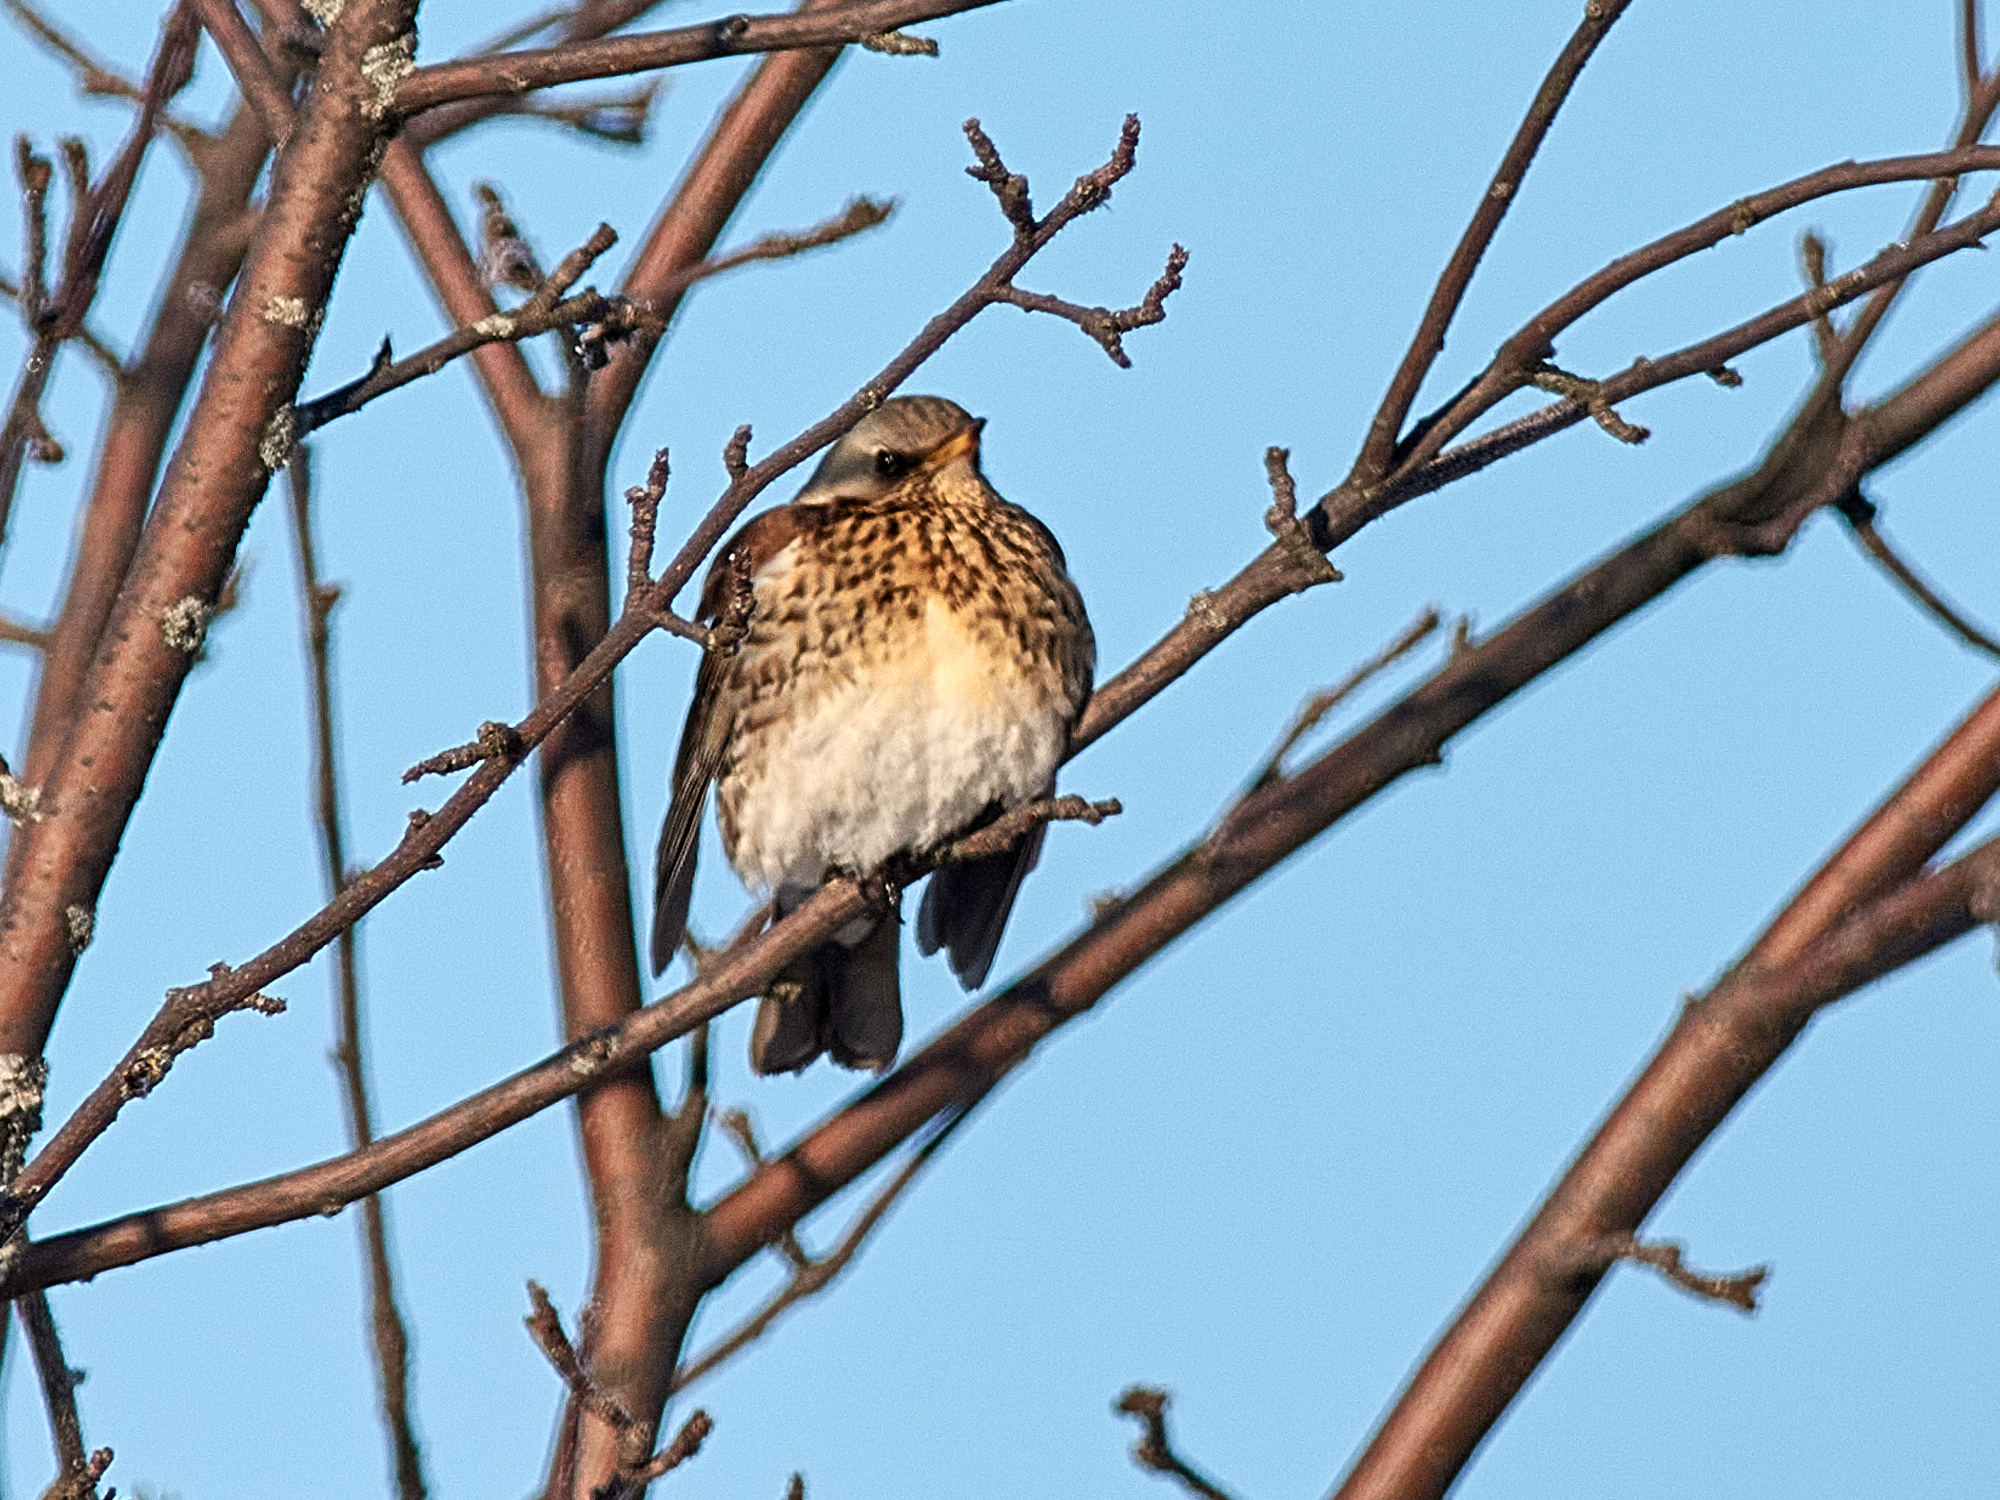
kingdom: Animalia
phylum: Chordata
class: Aves
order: Passeriformes
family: Turdidae
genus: Turdus
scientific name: Turdus pilaris
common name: Fieldfare
